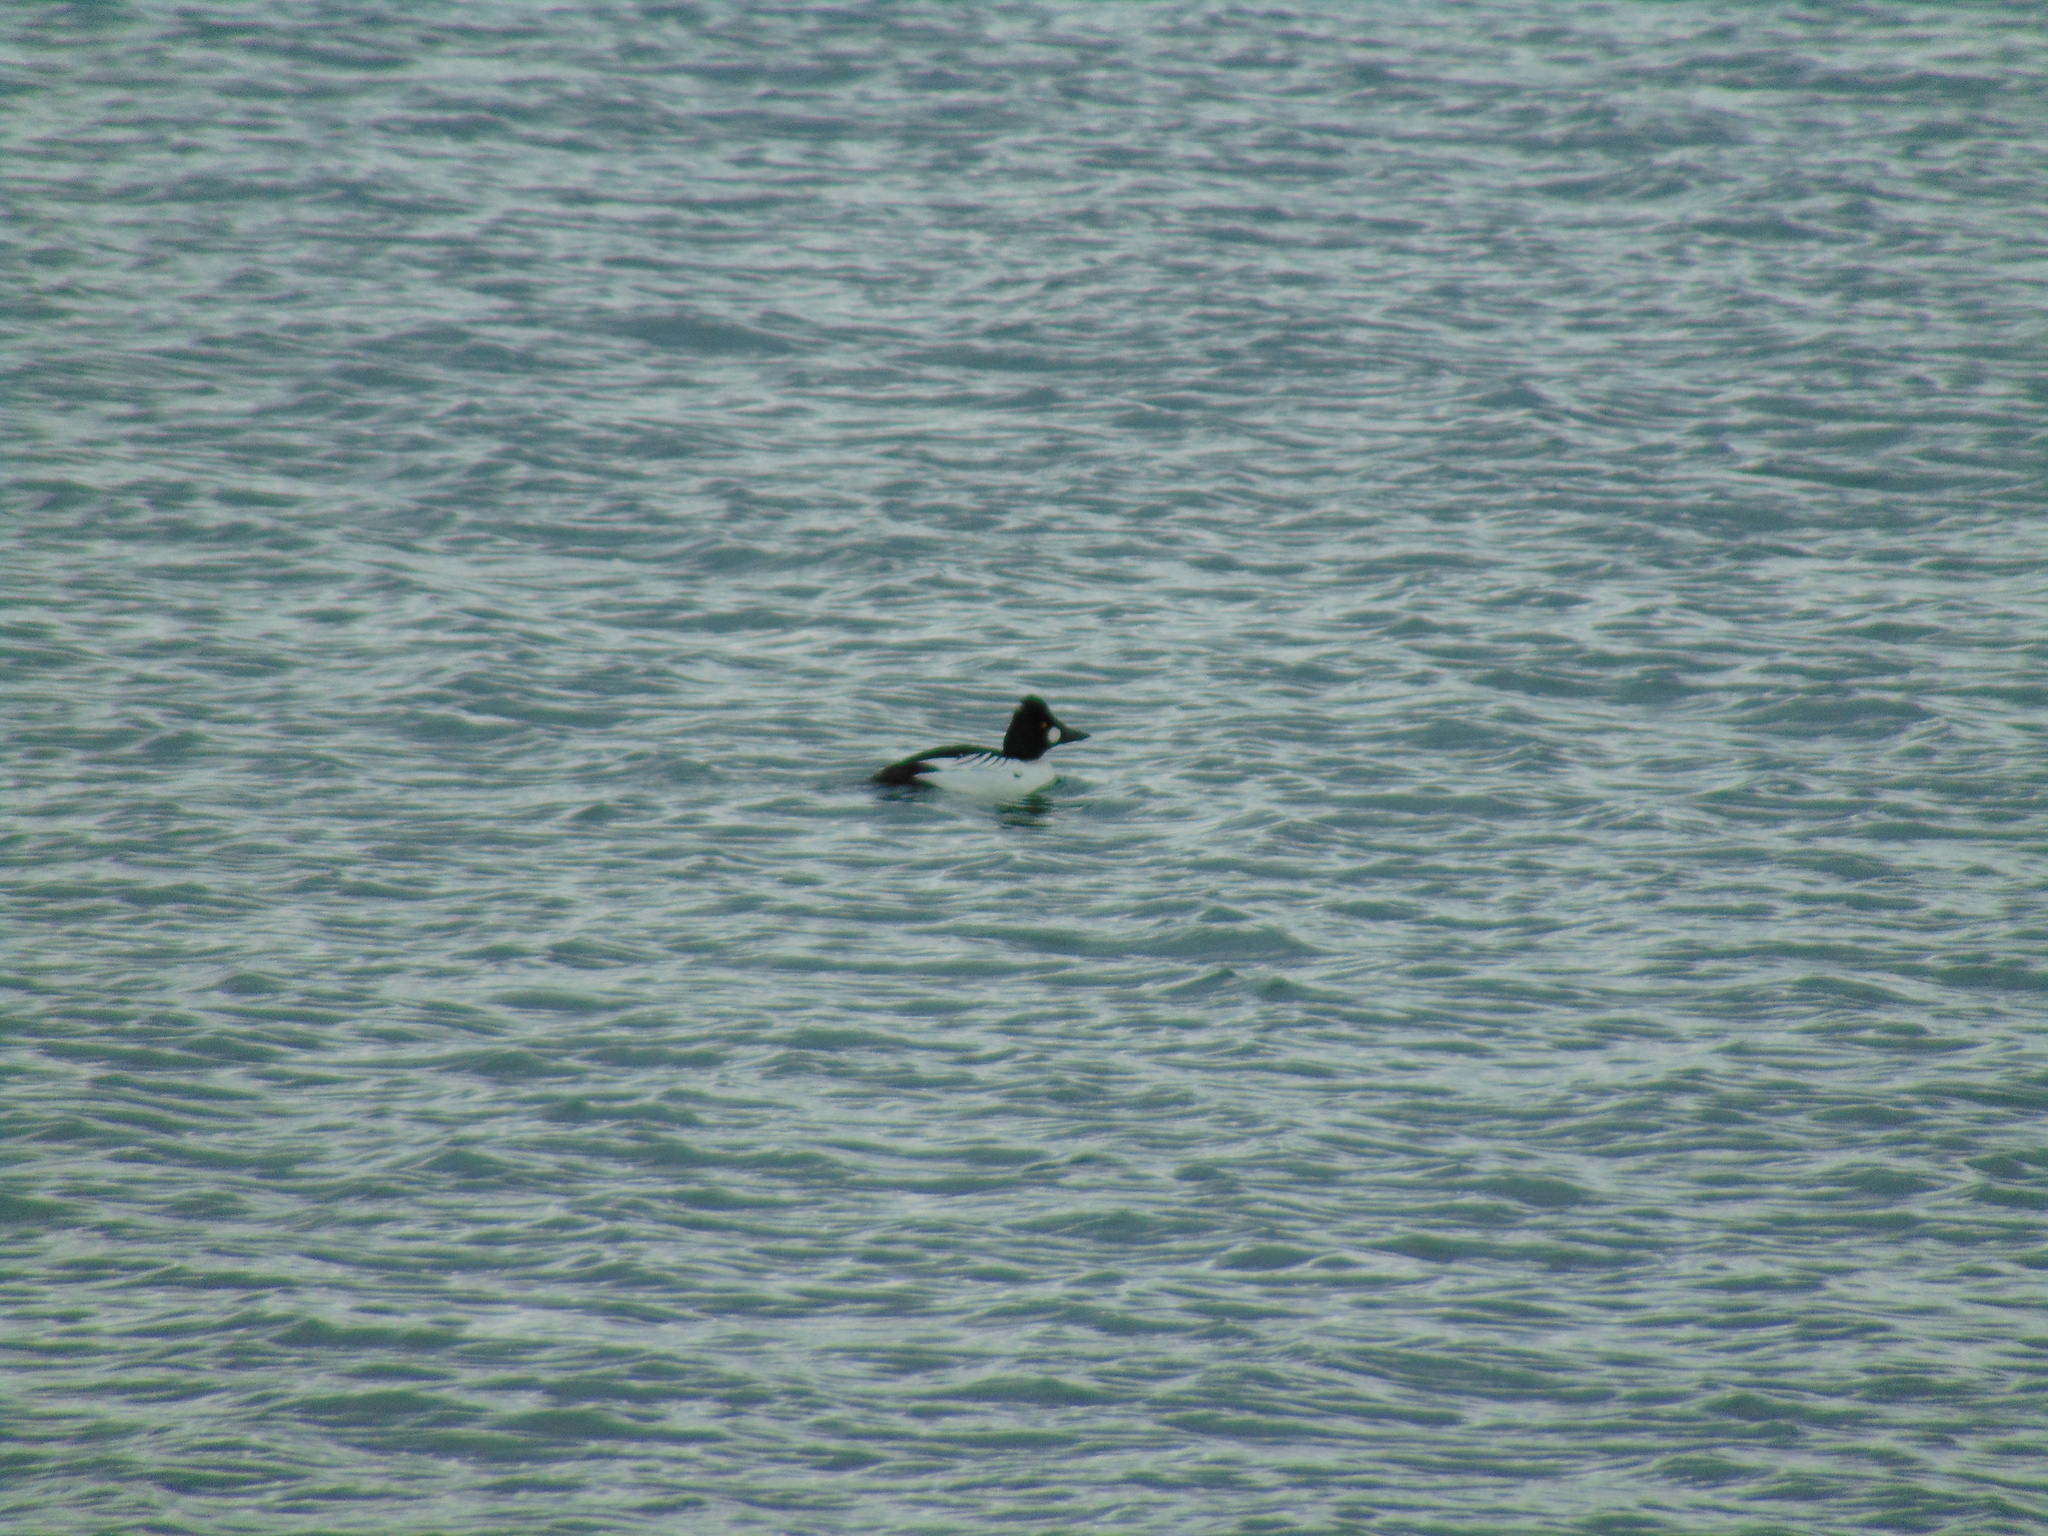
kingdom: Animalia
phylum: Chordata
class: Aves
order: Anseriformes
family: Anatidae
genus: Bucephala
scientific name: Bucephala clangula
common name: Common goldeneye
